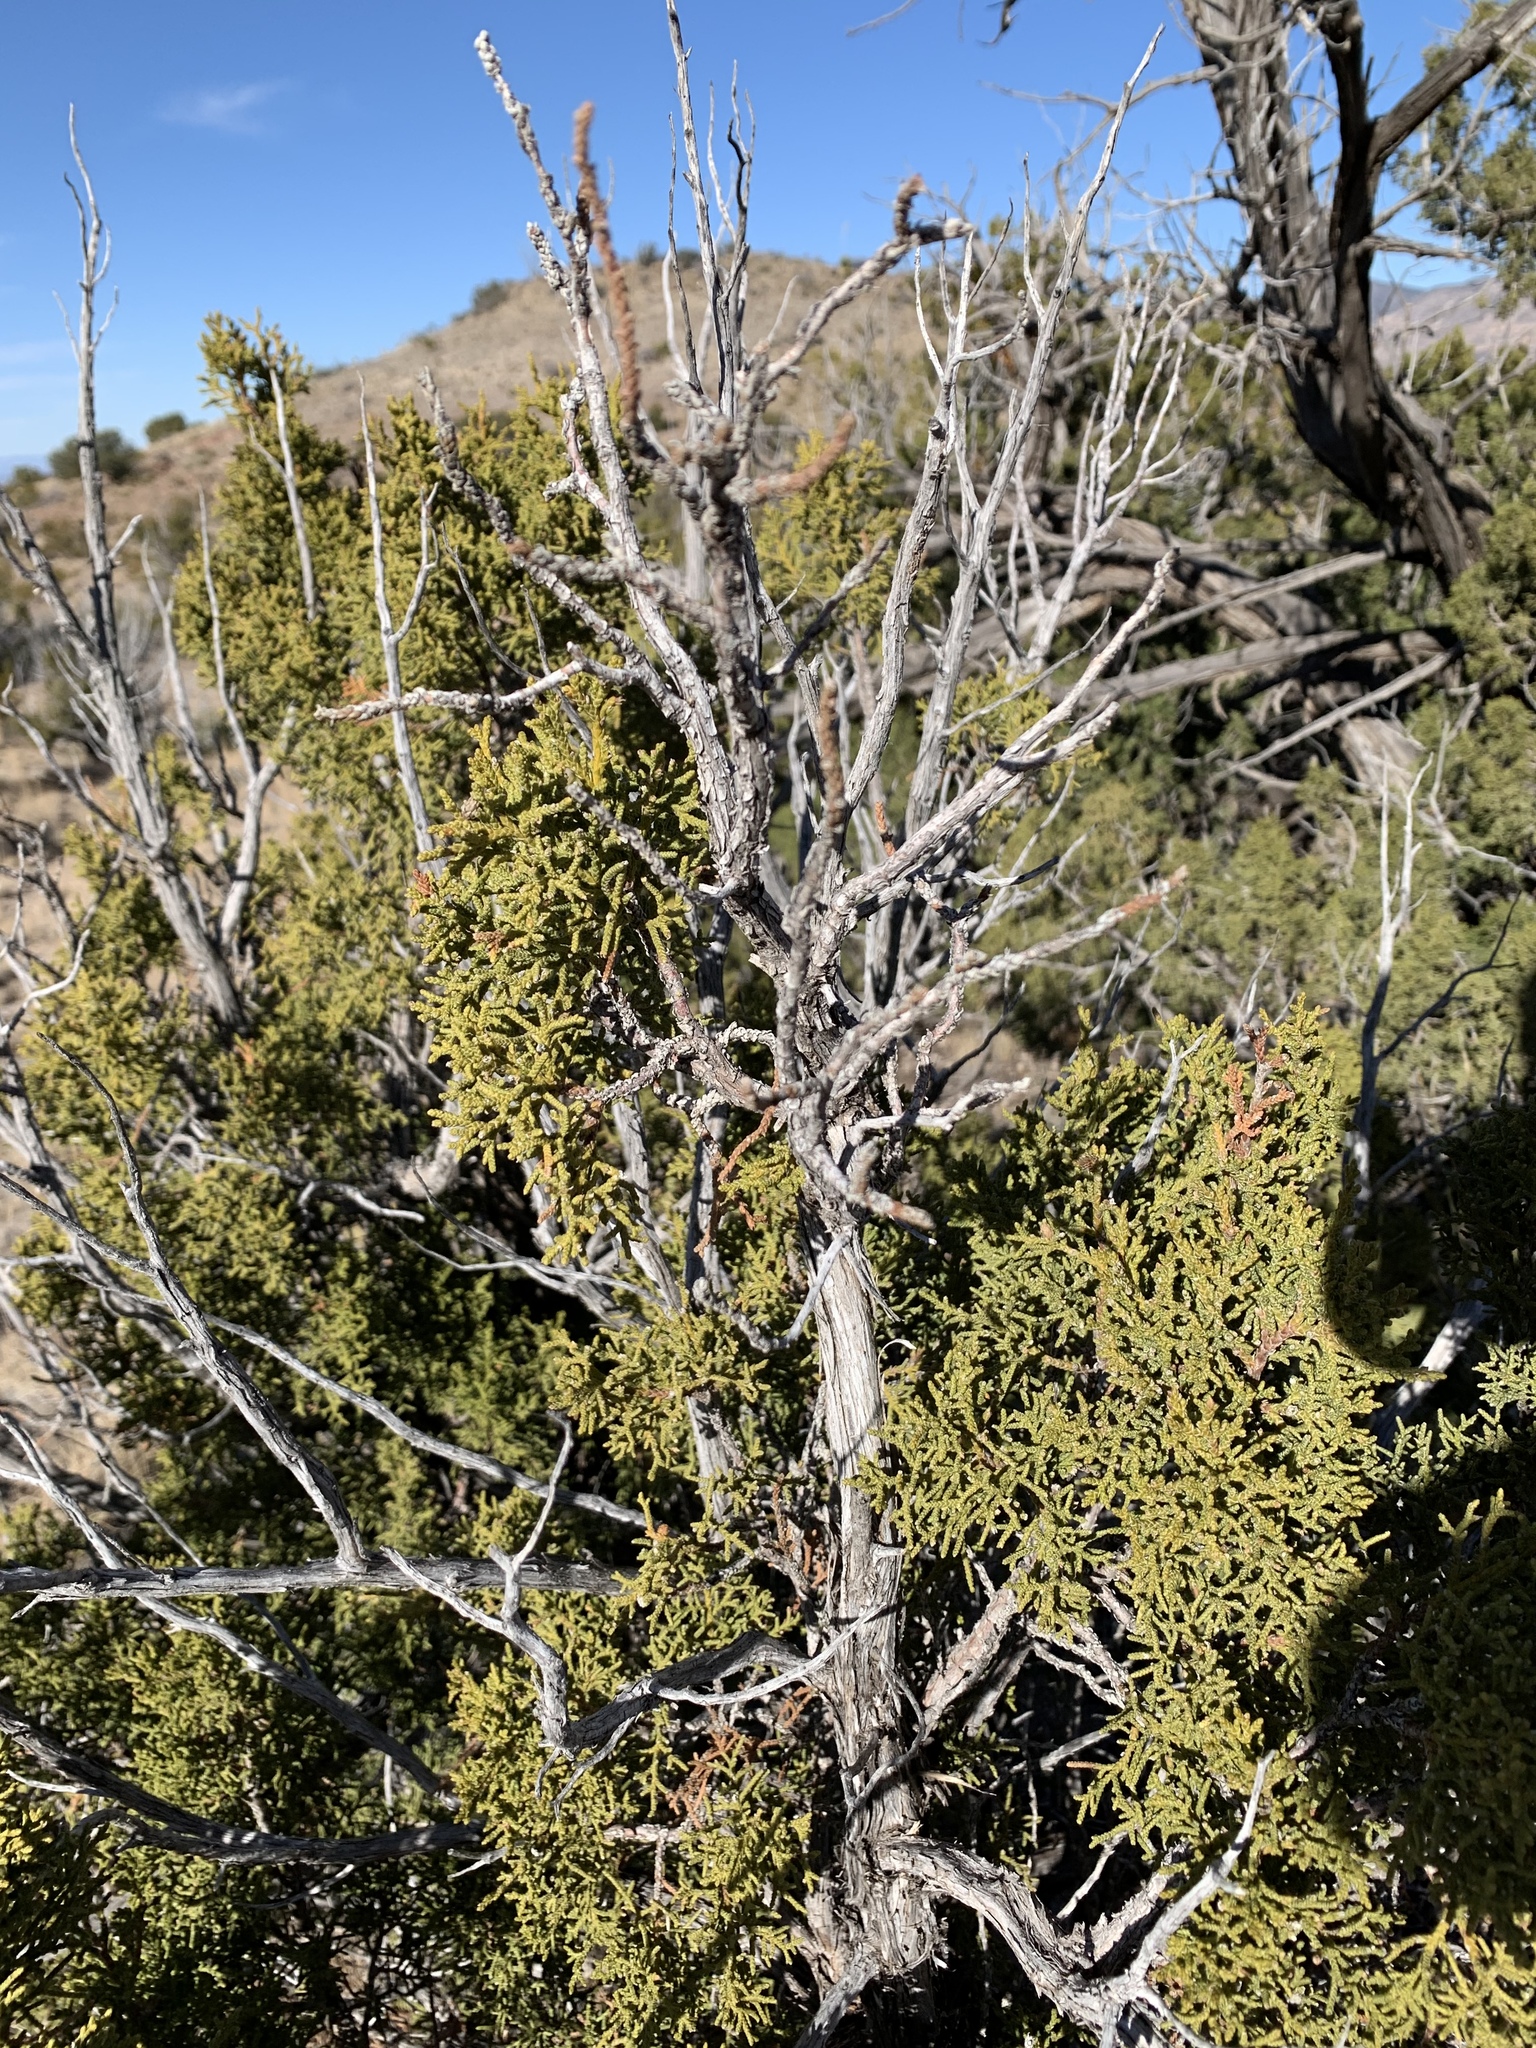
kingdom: Plantae
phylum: Tracheophyta
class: Pinopsida
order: Pinales
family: Cupressaceae
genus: Juniperus
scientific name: Juniperus monosperma
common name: One-seed juniper
